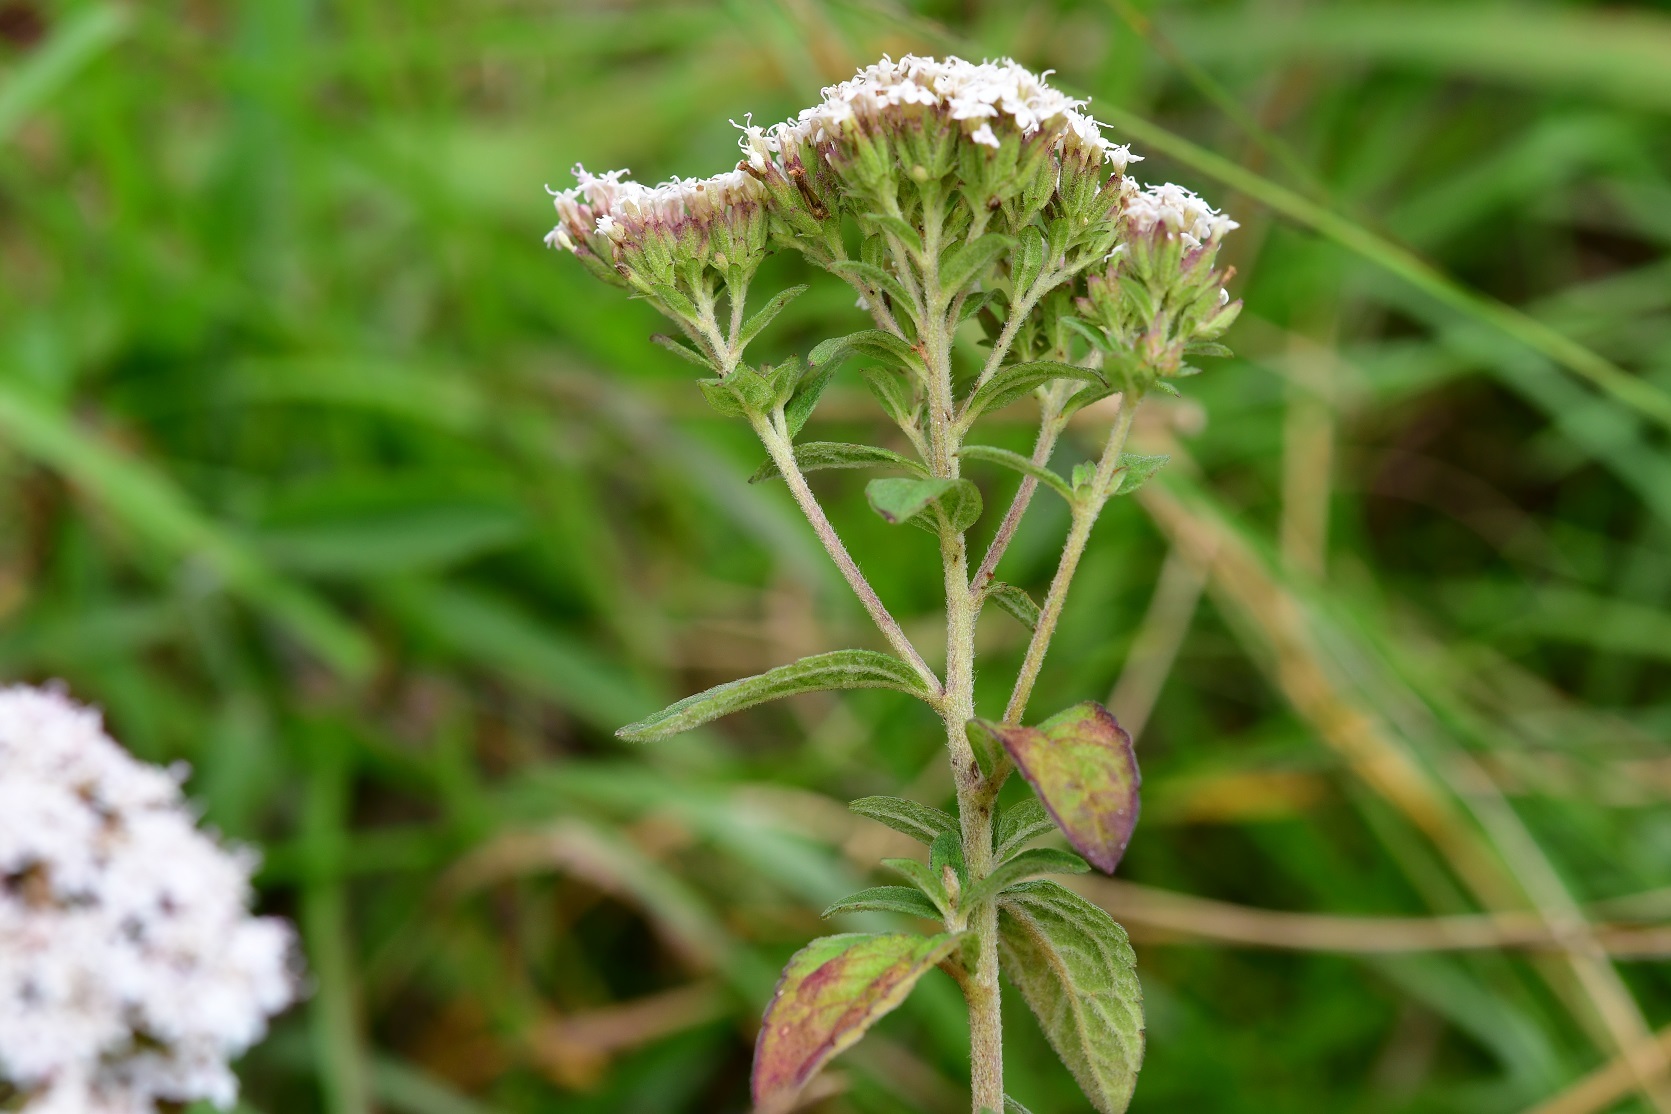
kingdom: Plantae
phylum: Tracheophyta
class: Magnoliopsida
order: Asterales
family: Asteraceae
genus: Stevia
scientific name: Stevia tomentosa
